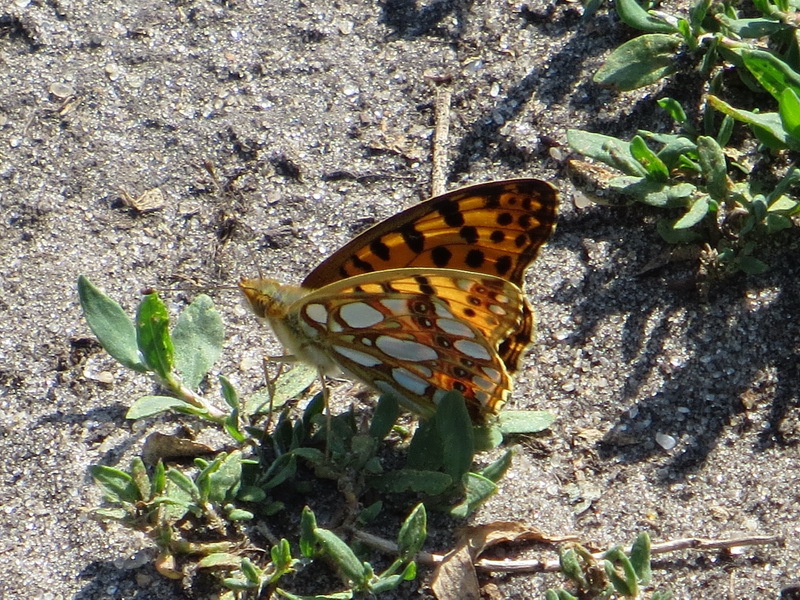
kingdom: Animalia
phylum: Arthropoda
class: Insecta
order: Lepidoptera
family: Nymphalidae
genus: Issoria
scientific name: Issoria lathonia
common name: Queen of spain fritillary
